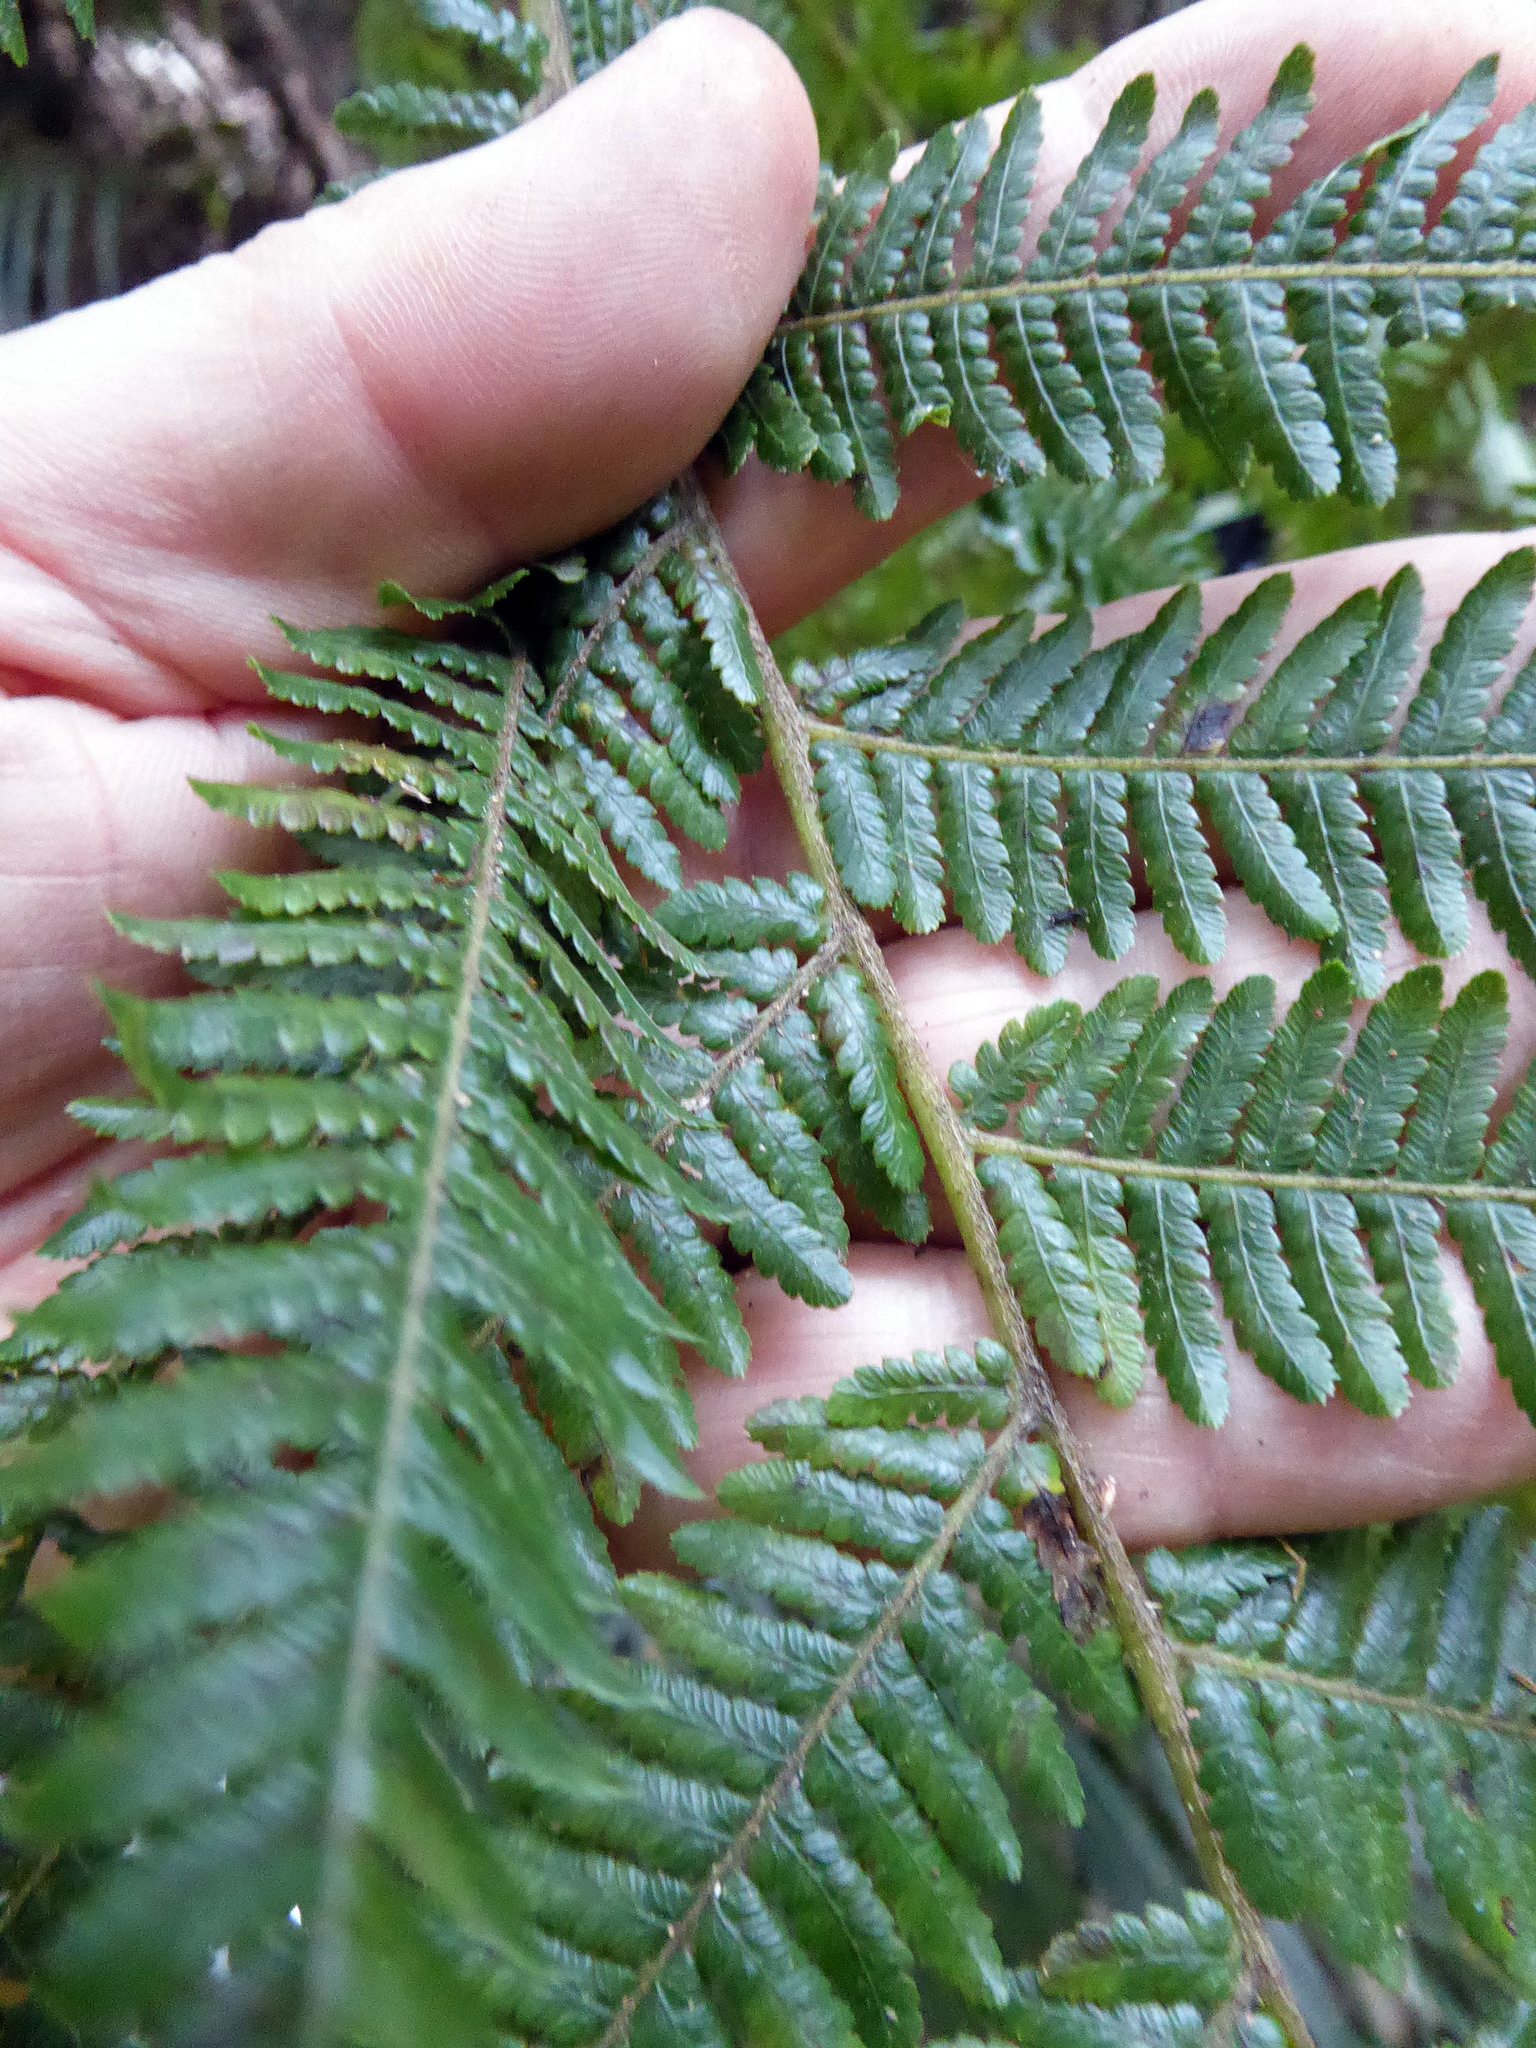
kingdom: Plantae
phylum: Tracheophyta
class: Polypodiopsida
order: Cyatheales
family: Cyatheaceae
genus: Sphaeropteris
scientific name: Sphaeropteris medullaris
